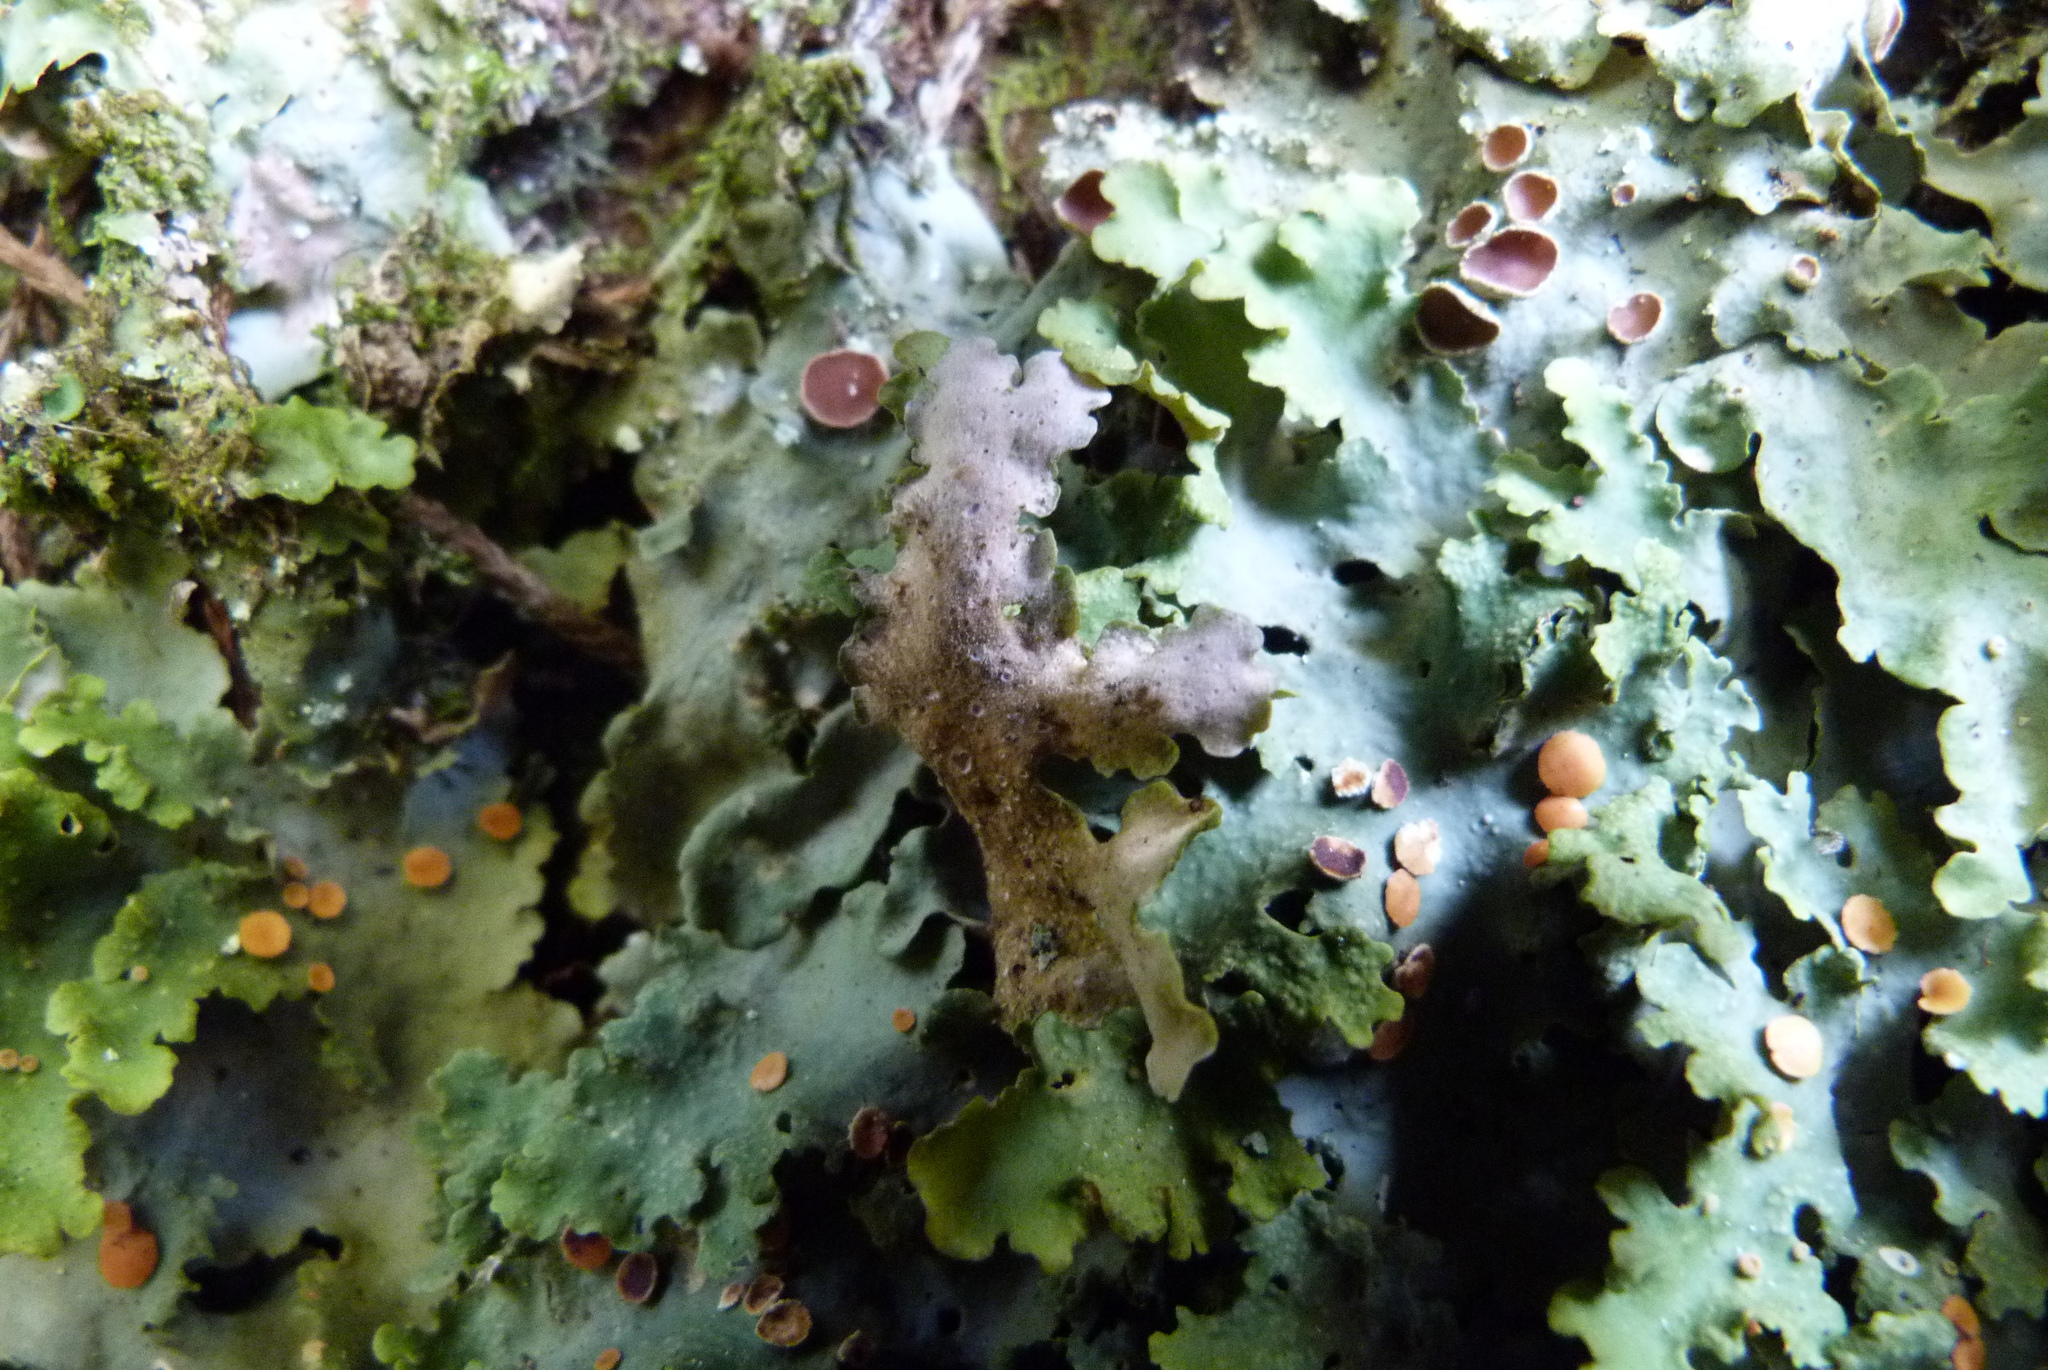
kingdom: Fungi
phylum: Ascomycota
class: Lecanoromycetes
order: Peltigerales
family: Lobariaceae
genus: Sticta
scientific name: Sticta subcaperata
